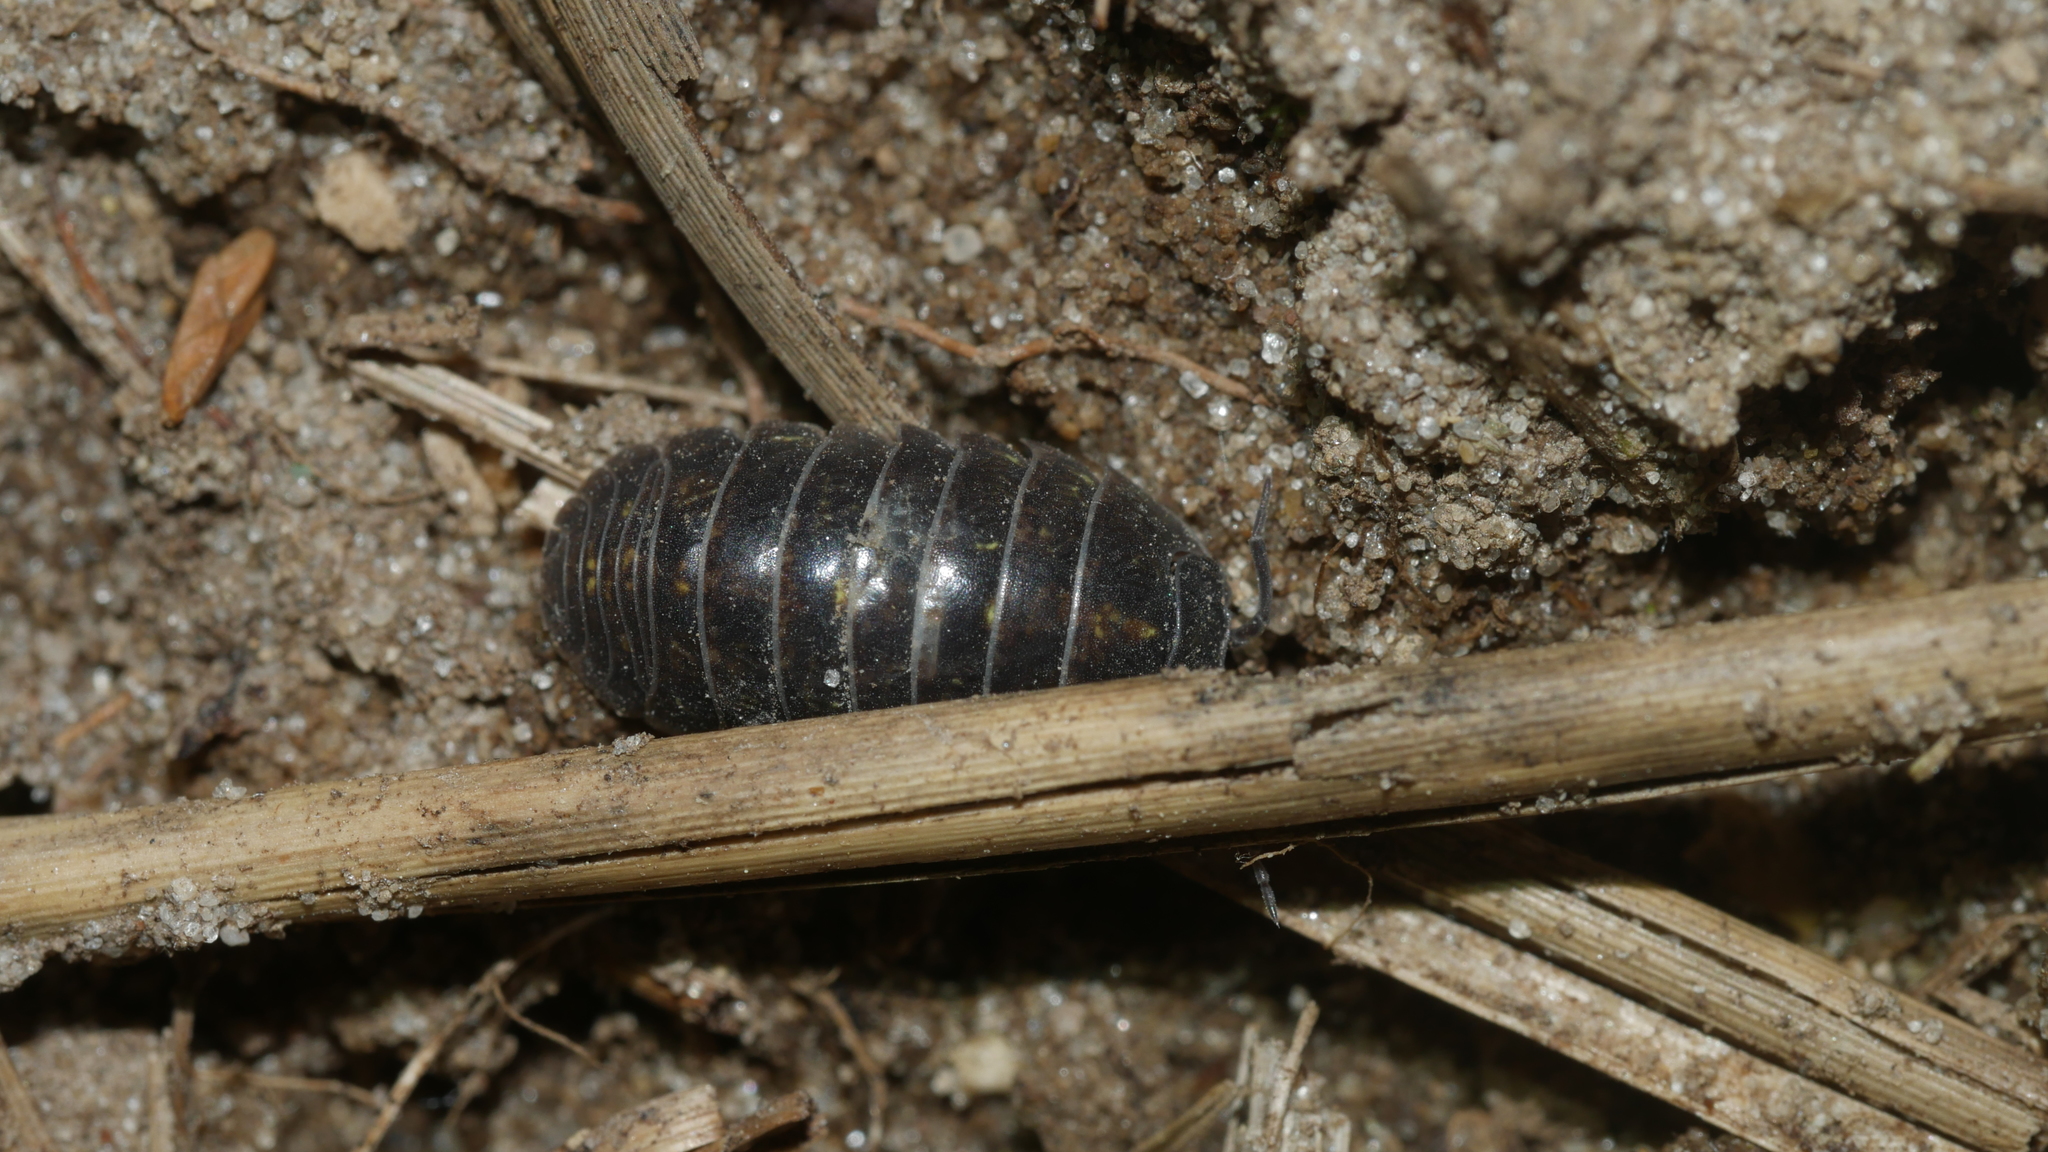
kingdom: Animalia
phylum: Arthropoda
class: Malacostraca
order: Isopoda
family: Armadillidiidae
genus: Armadillidium
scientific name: Armadillidium vulgare
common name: Common pill woodlouse
